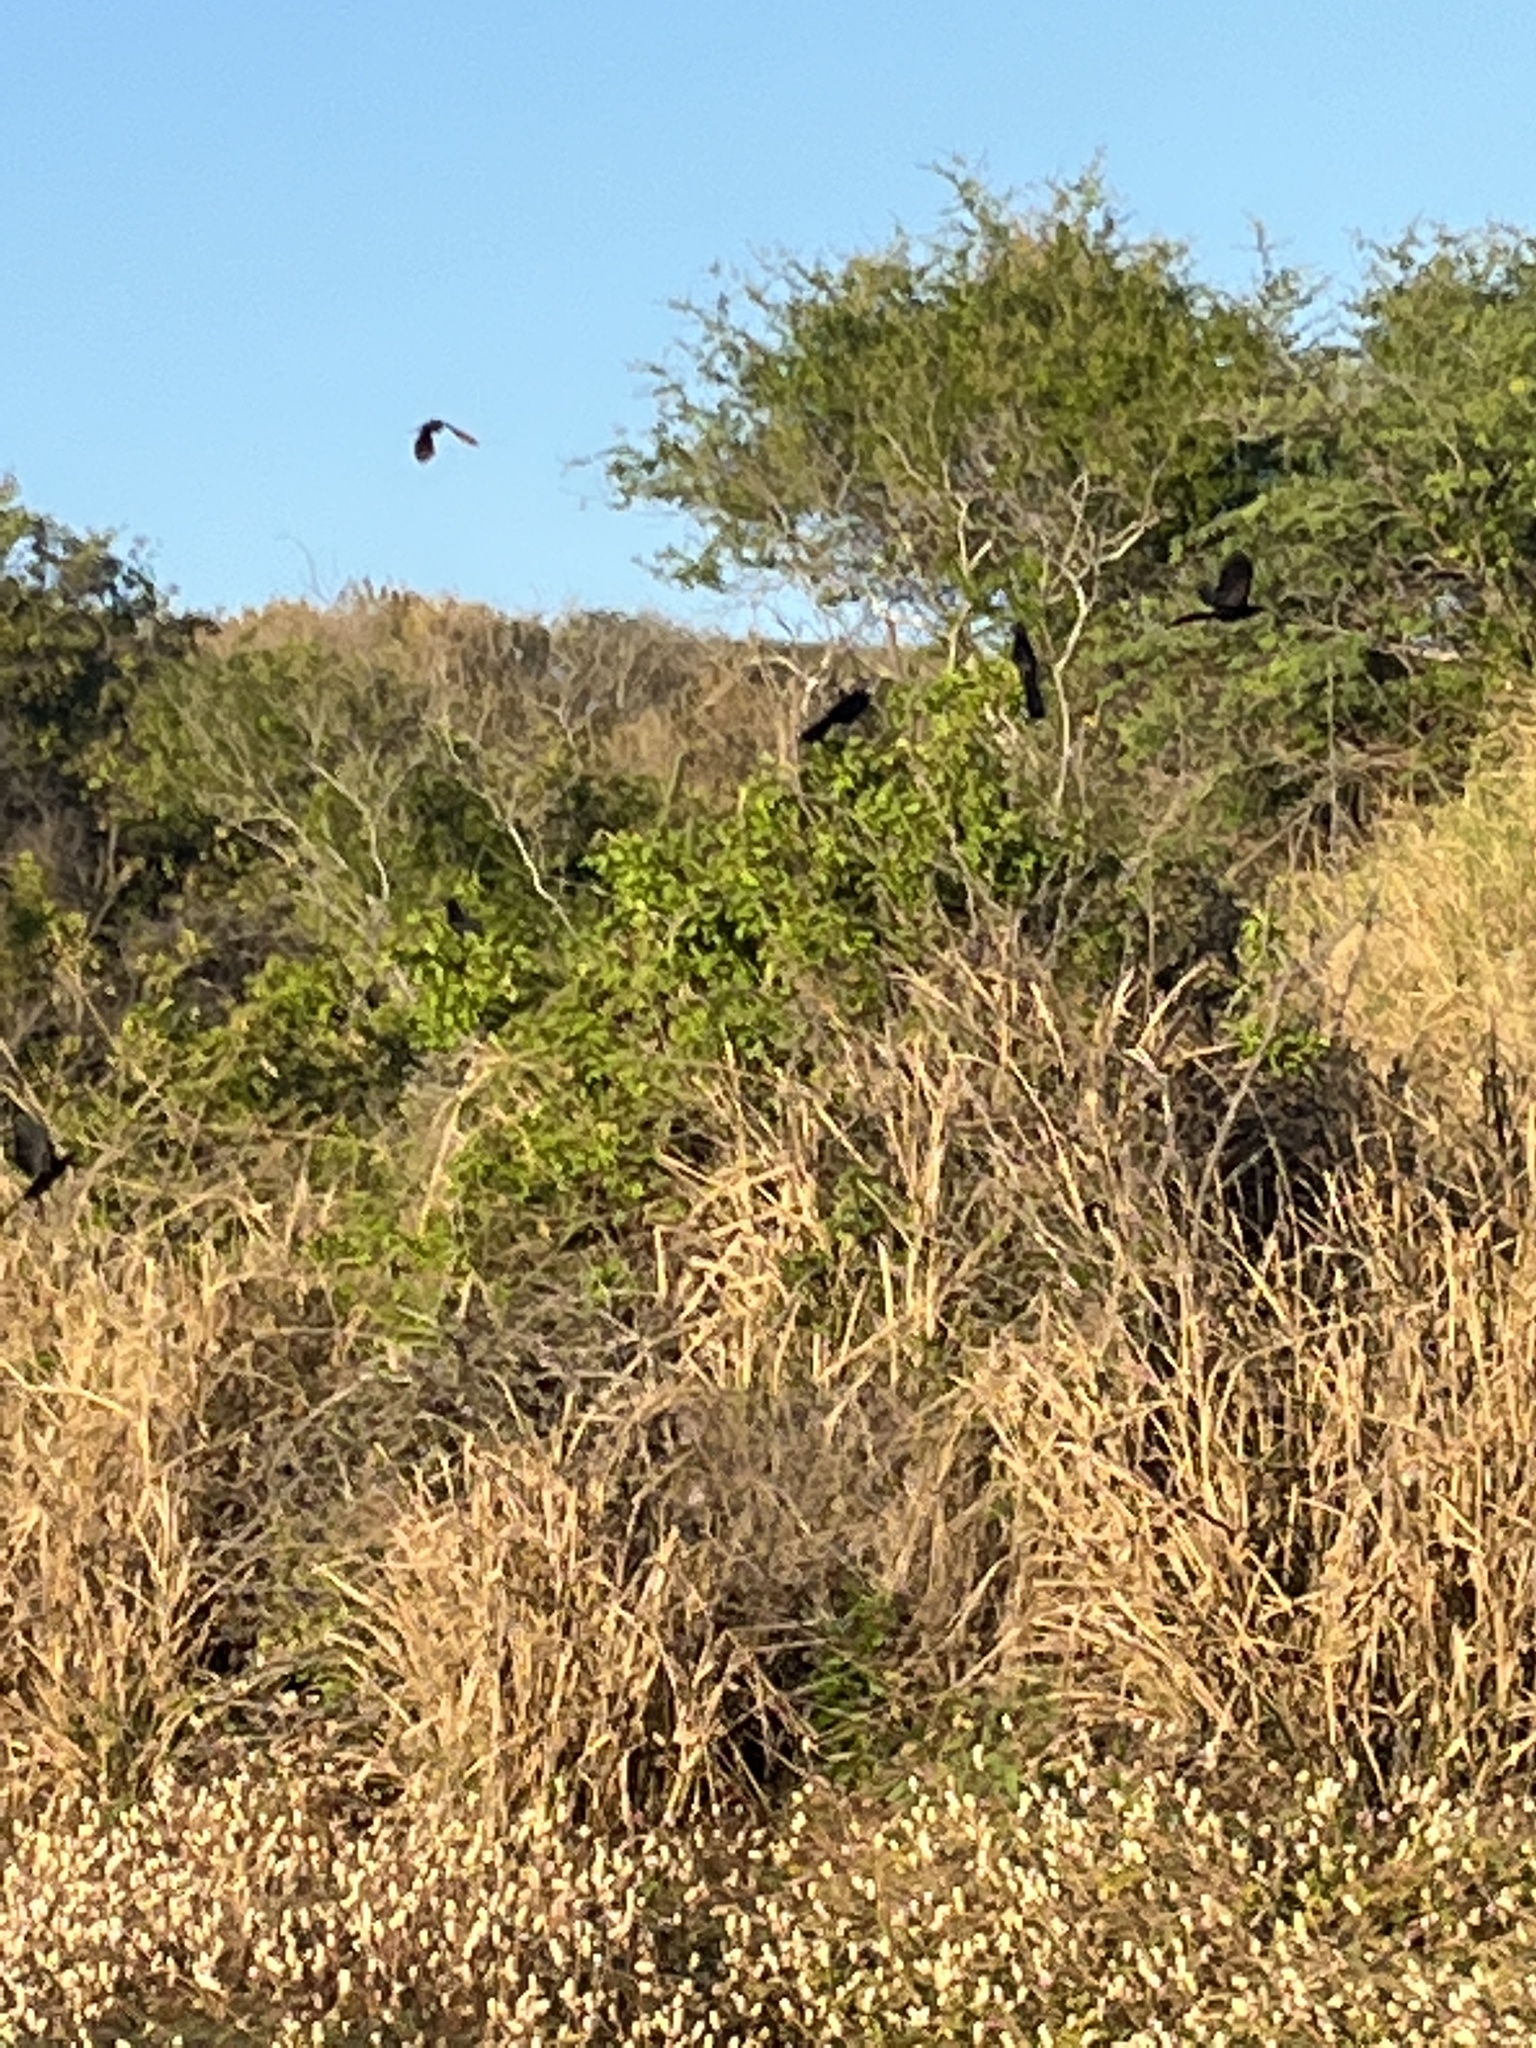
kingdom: Animalia
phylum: Chordata
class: Aves
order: Passeriformes
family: Icteridae
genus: Quiscalus
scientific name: Quiscalus mexicanus
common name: Great-tailed grackle
